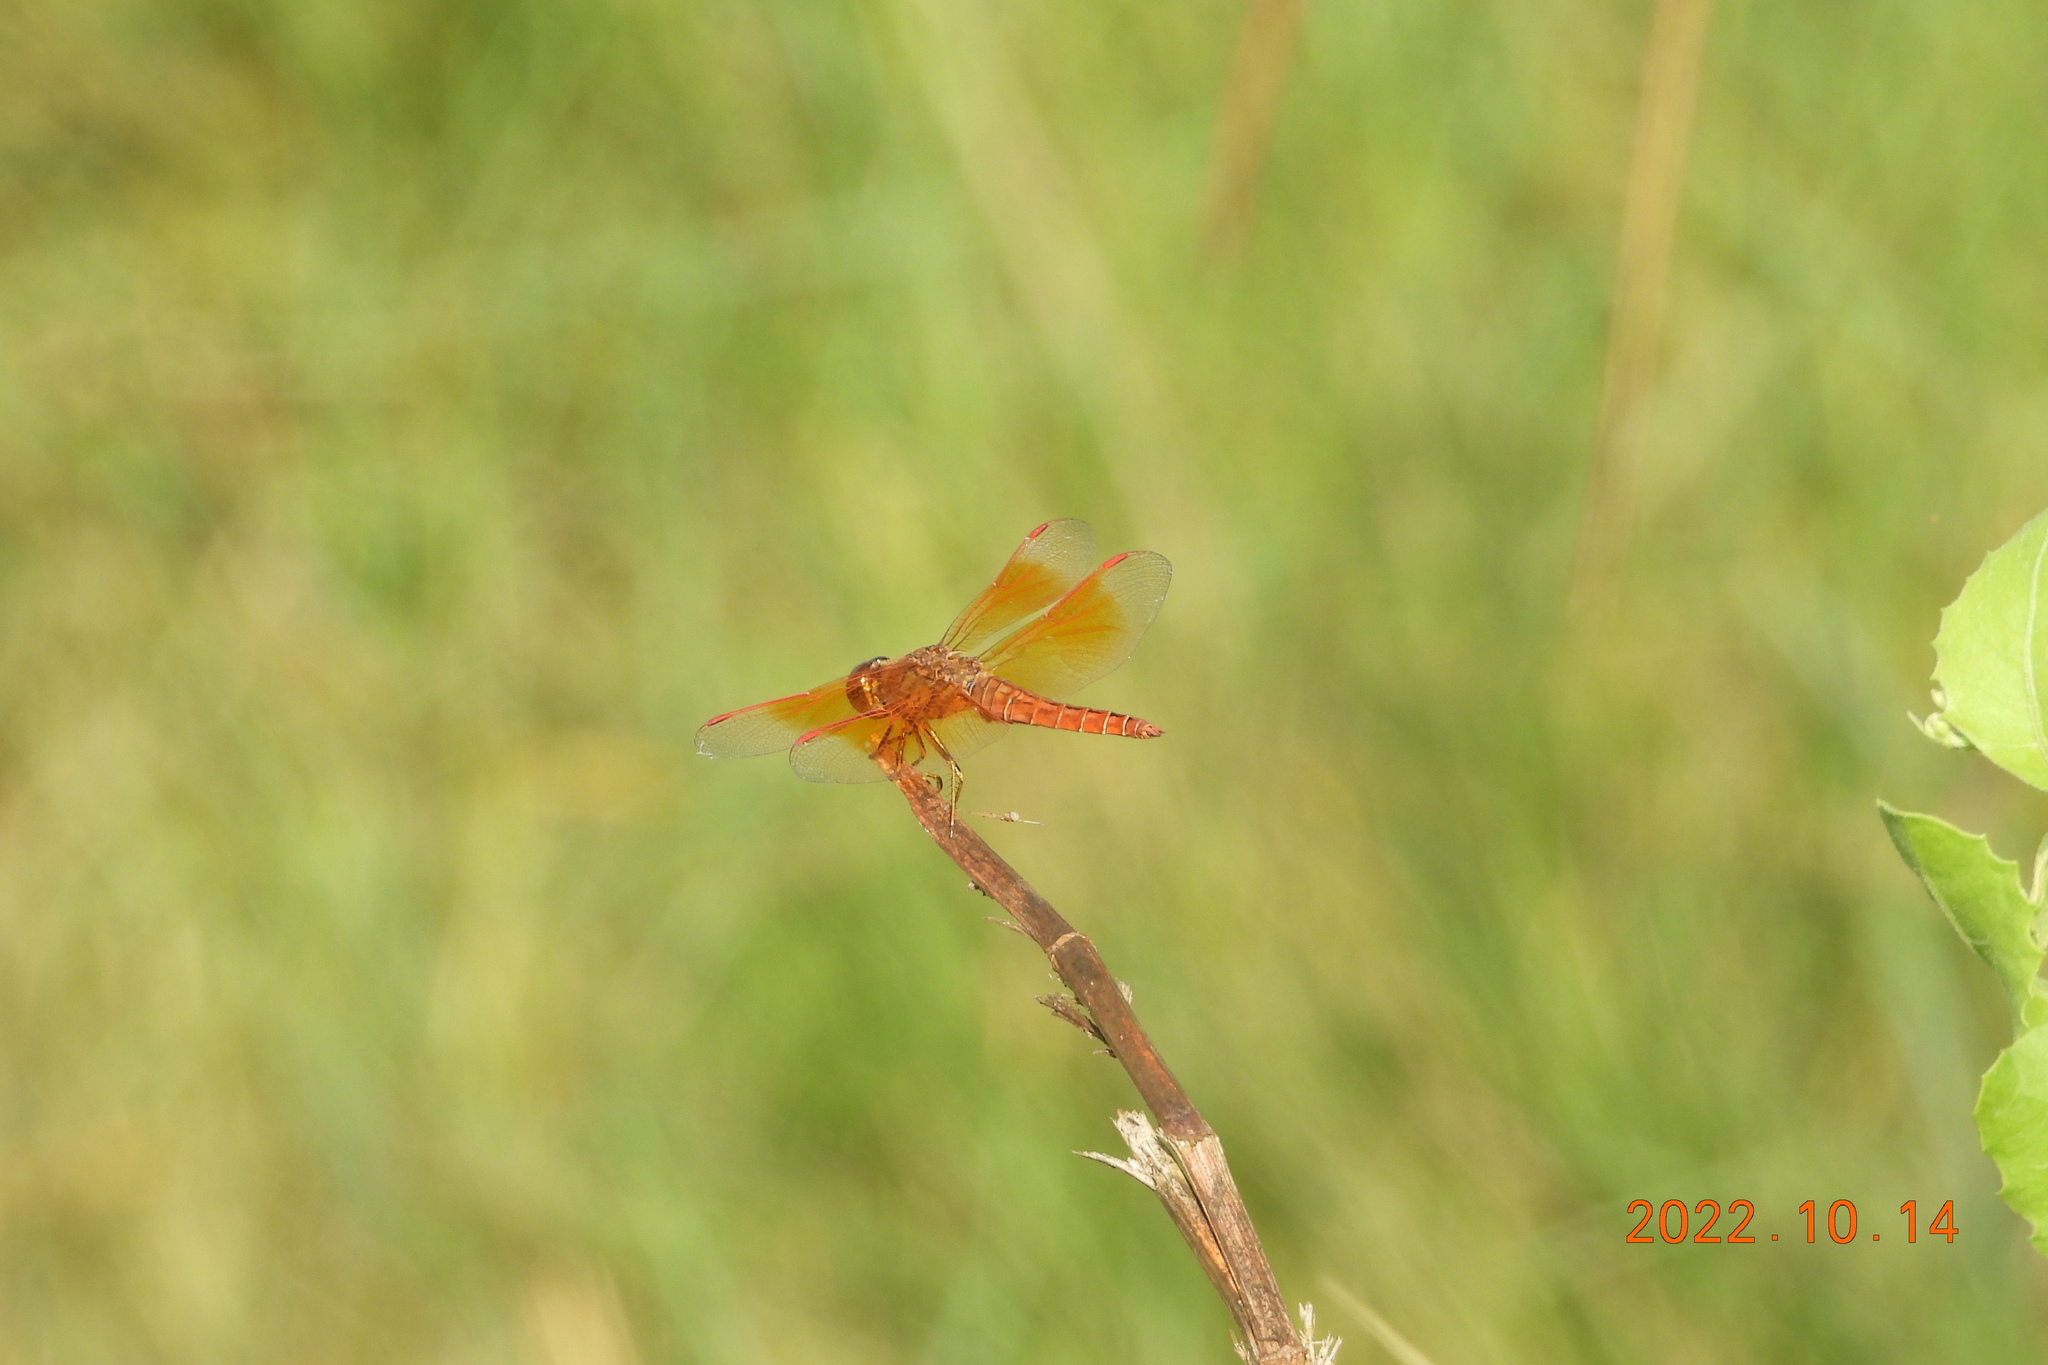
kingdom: Animalia
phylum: Arthropoda
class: Insecta
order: Odonata
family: Libellulidae
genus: Brachythemis
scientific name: Brachythemis contaminata
